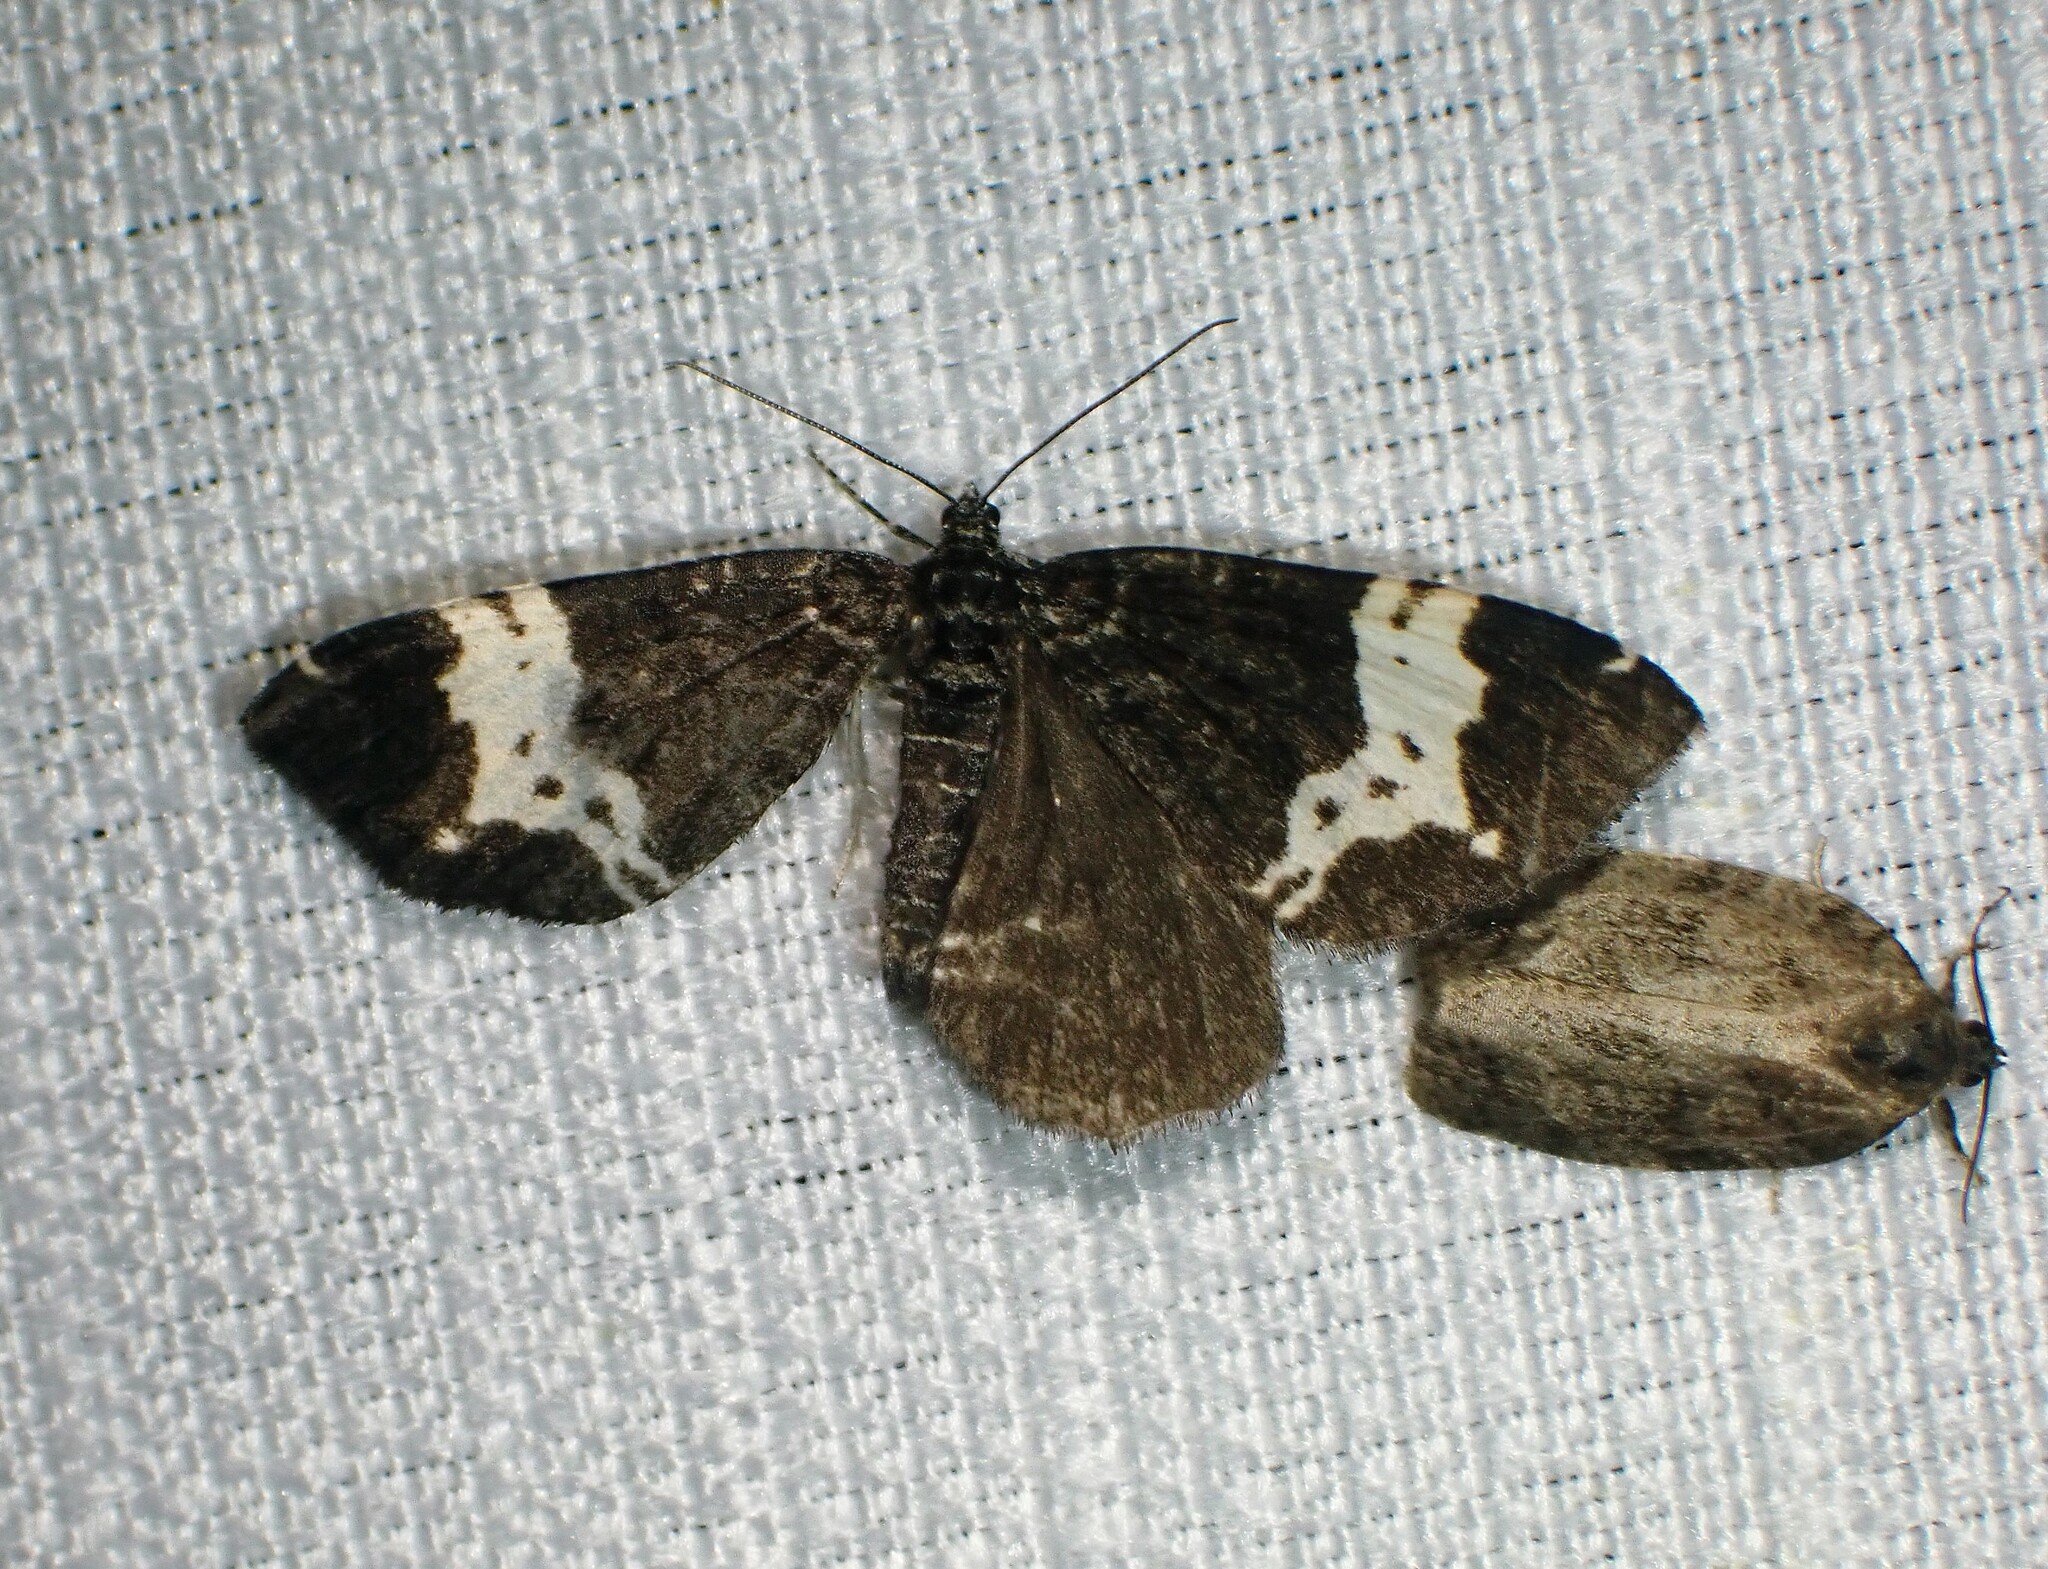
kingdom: Animalia
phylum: Arthropoda
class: Insecta
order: Lepidoptera
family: Geometridae
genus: Rheumaptera
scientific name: Rheumaptera
